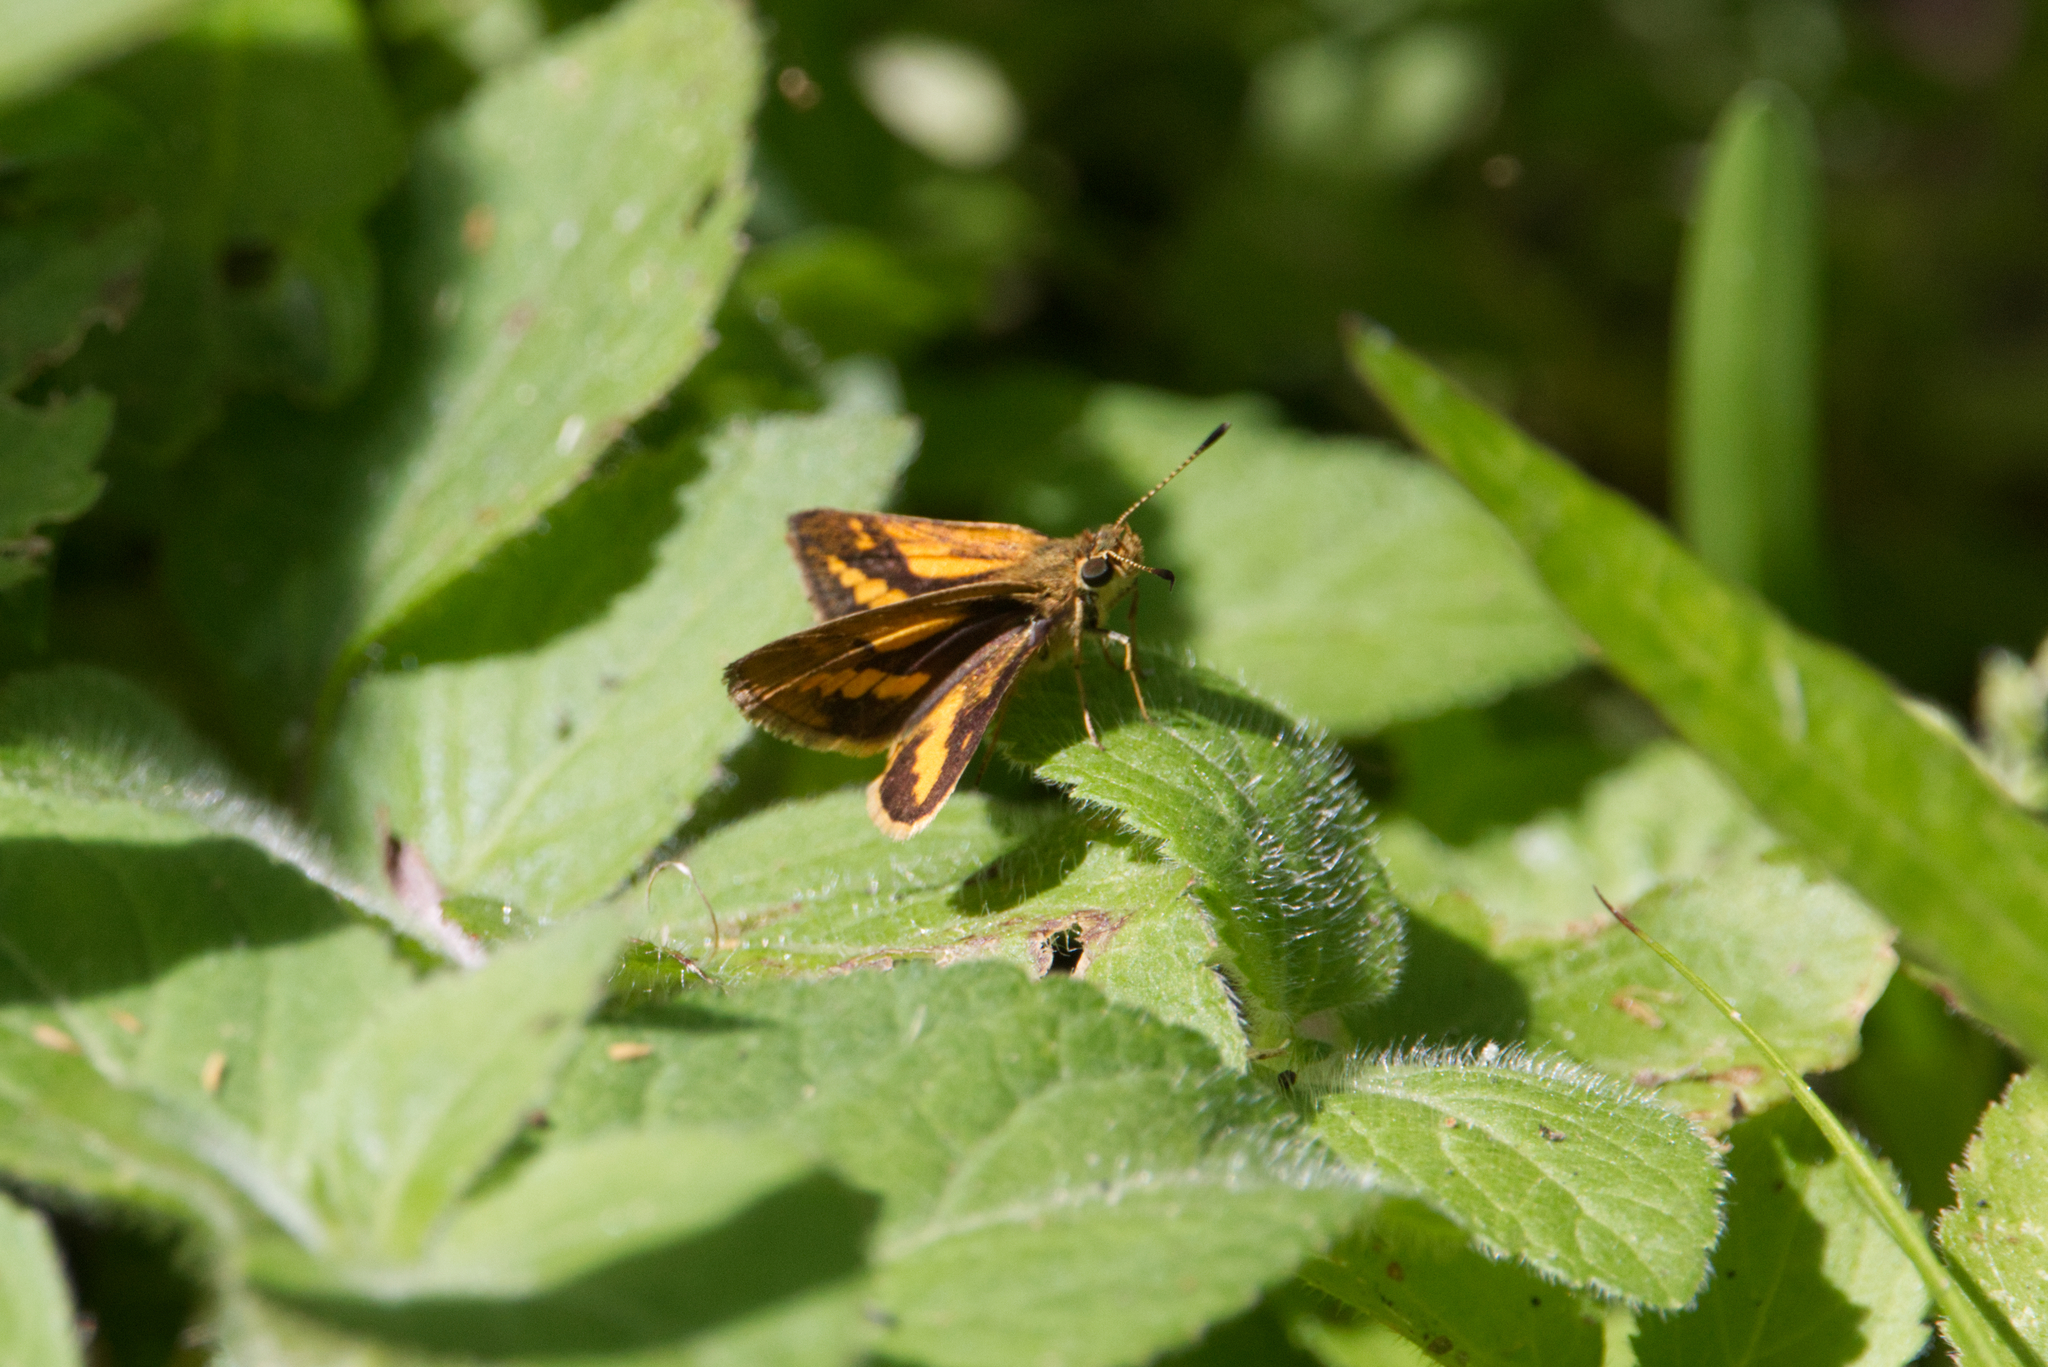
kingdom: Animalia
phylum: Arthropoda
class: Insecta
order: Lepidoptera
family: Hesperiidae
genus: Suniana
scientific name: Suniana sunias
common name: Wide-brand grass-dart
